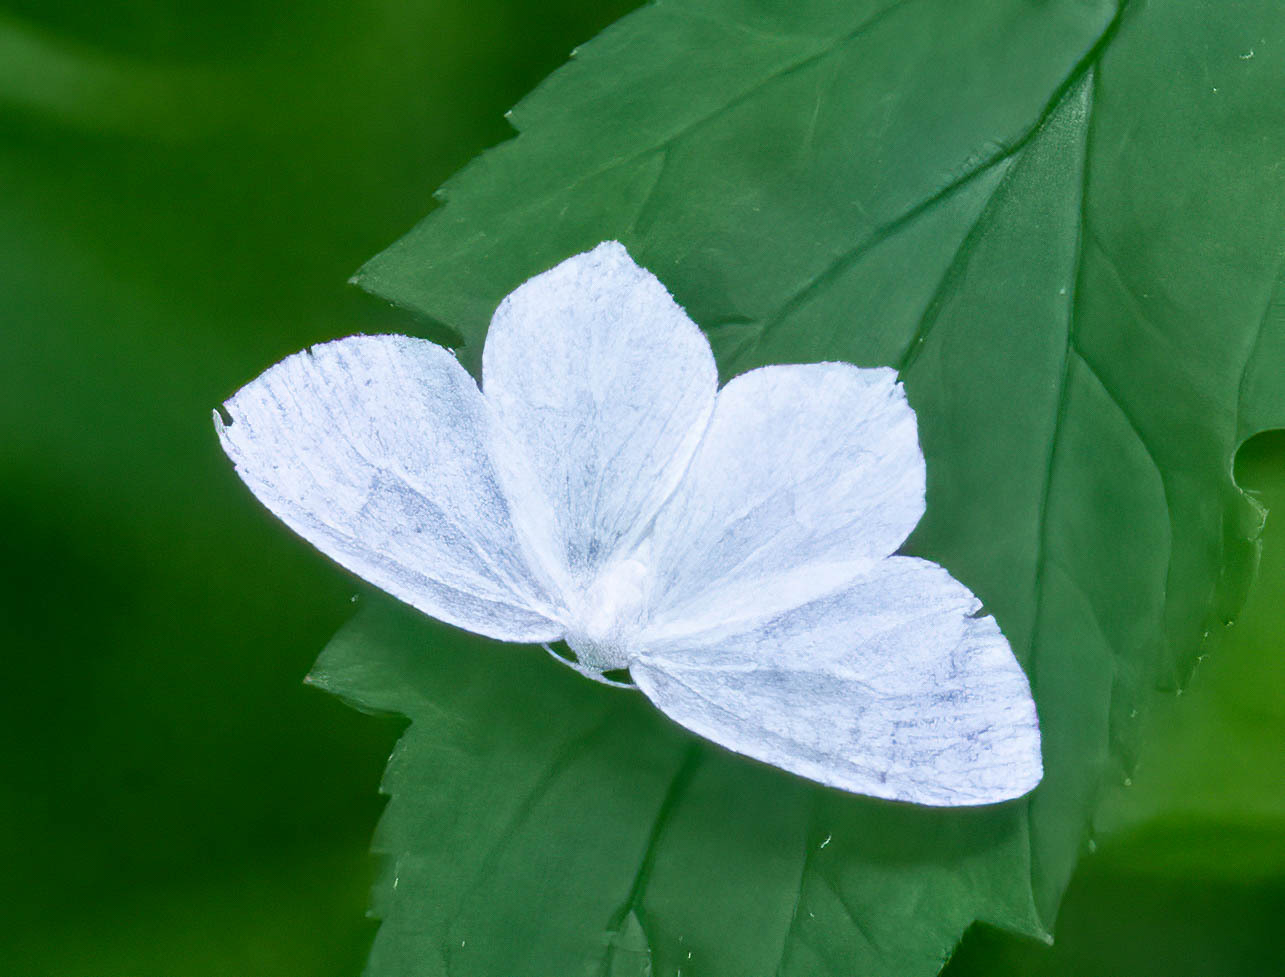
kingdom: Animalia
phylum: Arthropoda
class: Insecta
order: Lepidoptera
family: Geometridae
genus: Eugonobapta
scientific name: Eugonobapta nivosaria
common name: Snowy geometer
